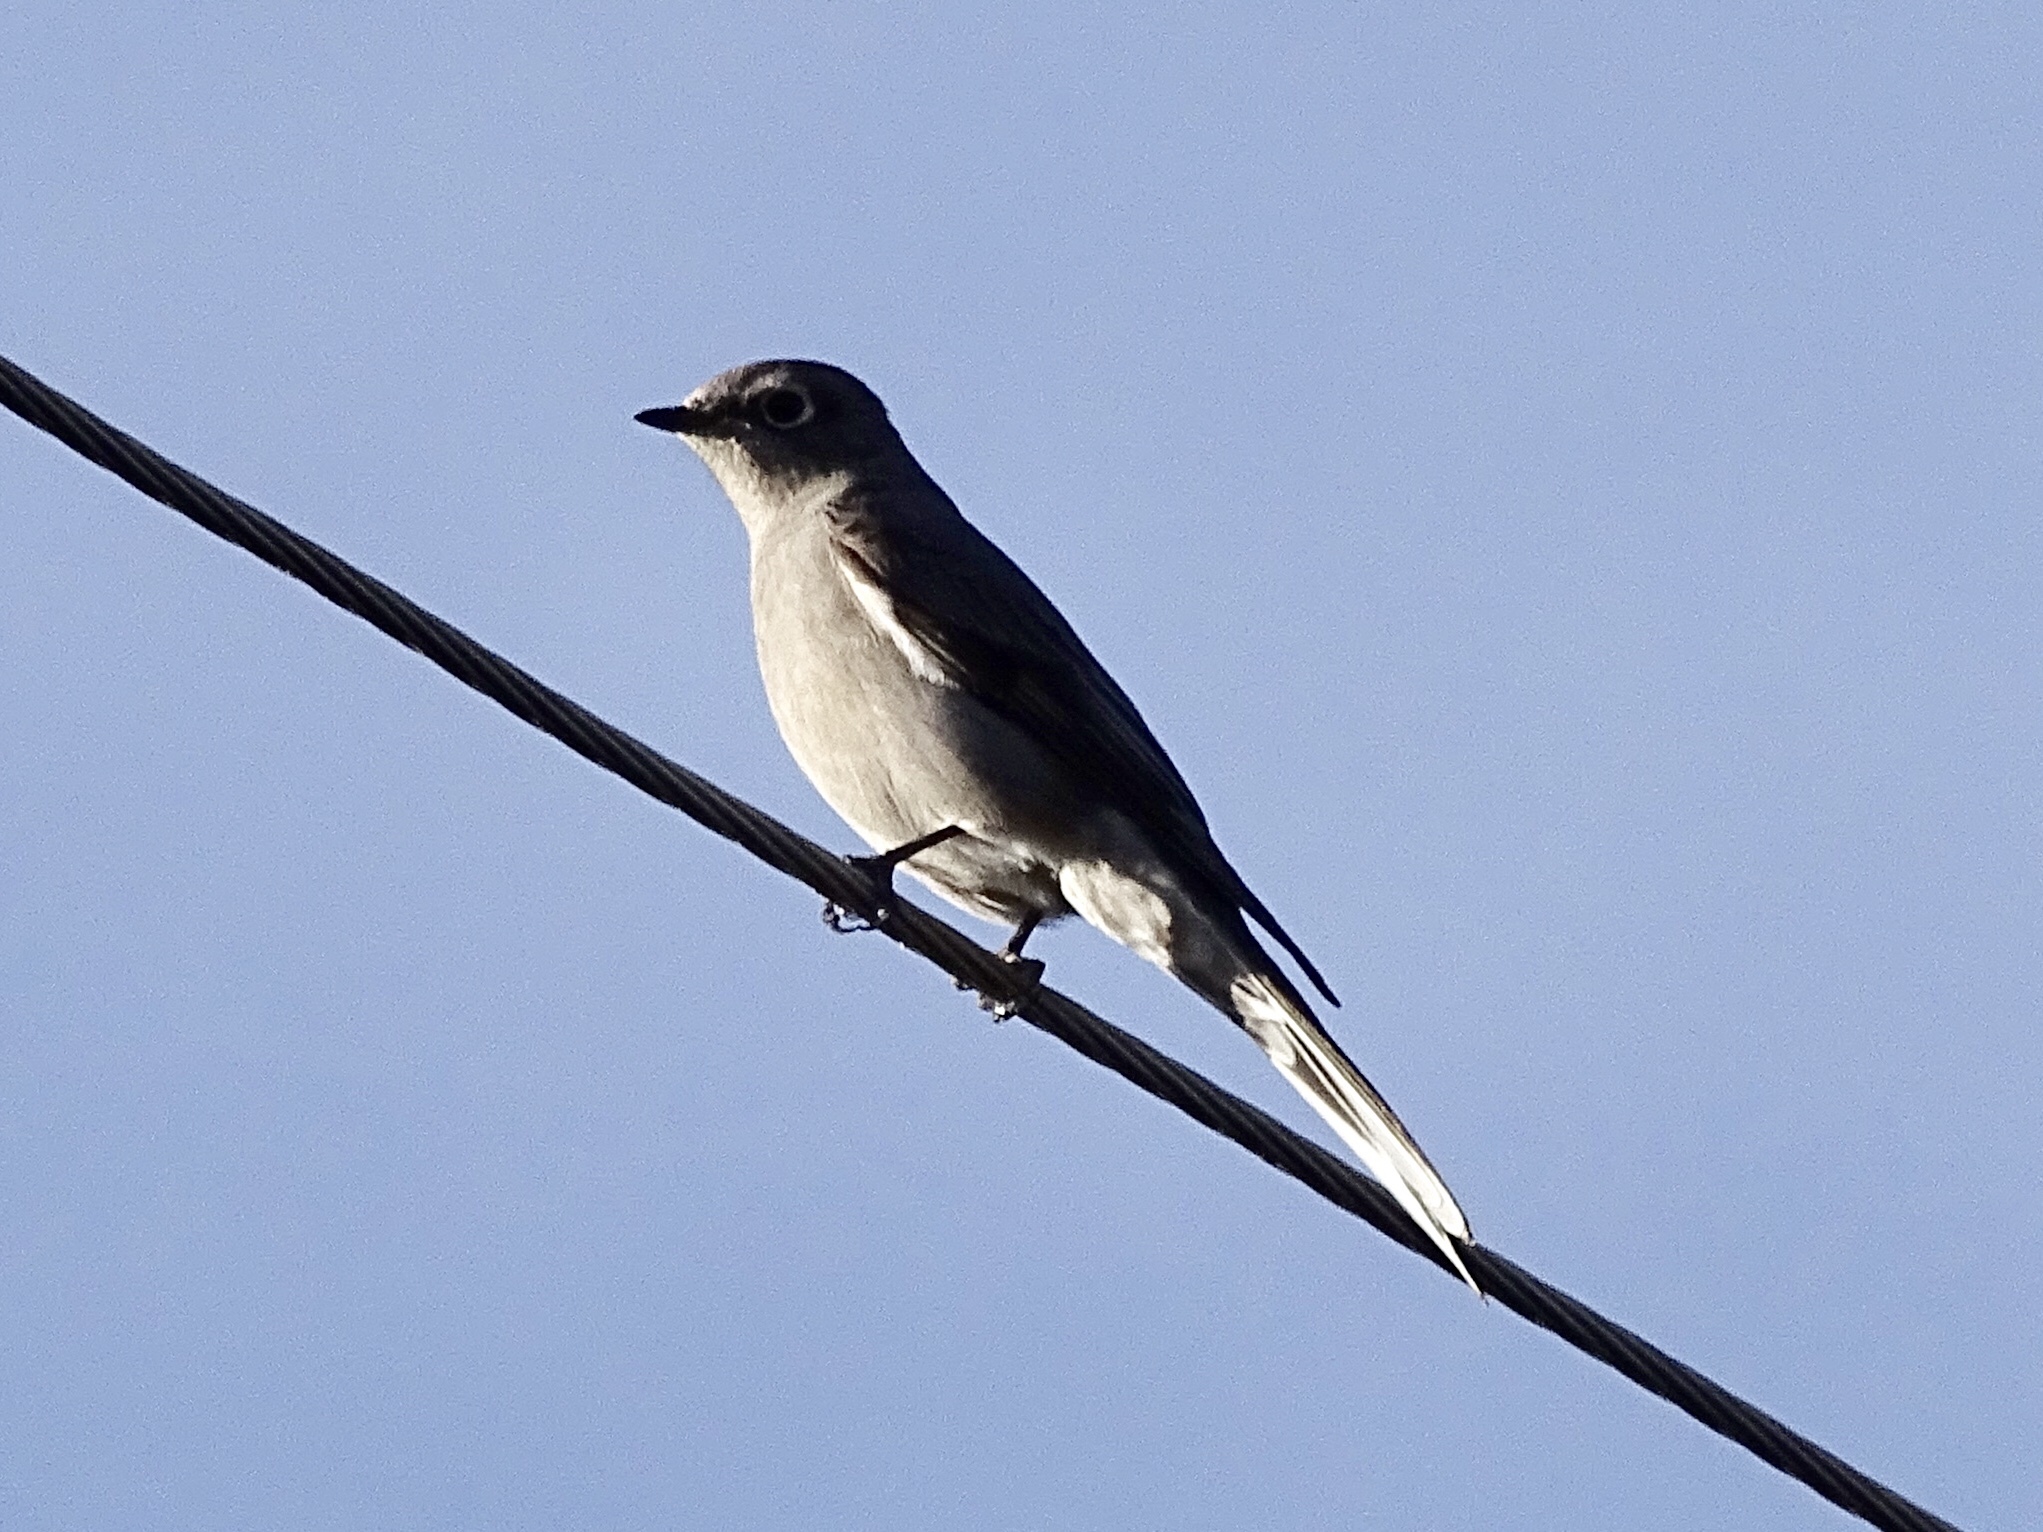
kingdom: Animalia
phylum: Chordata
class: Aves
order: Passeriformes
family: Turdidae
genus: Myadestes
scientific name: Myadestes townsendi
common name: Townsend's solitaire
